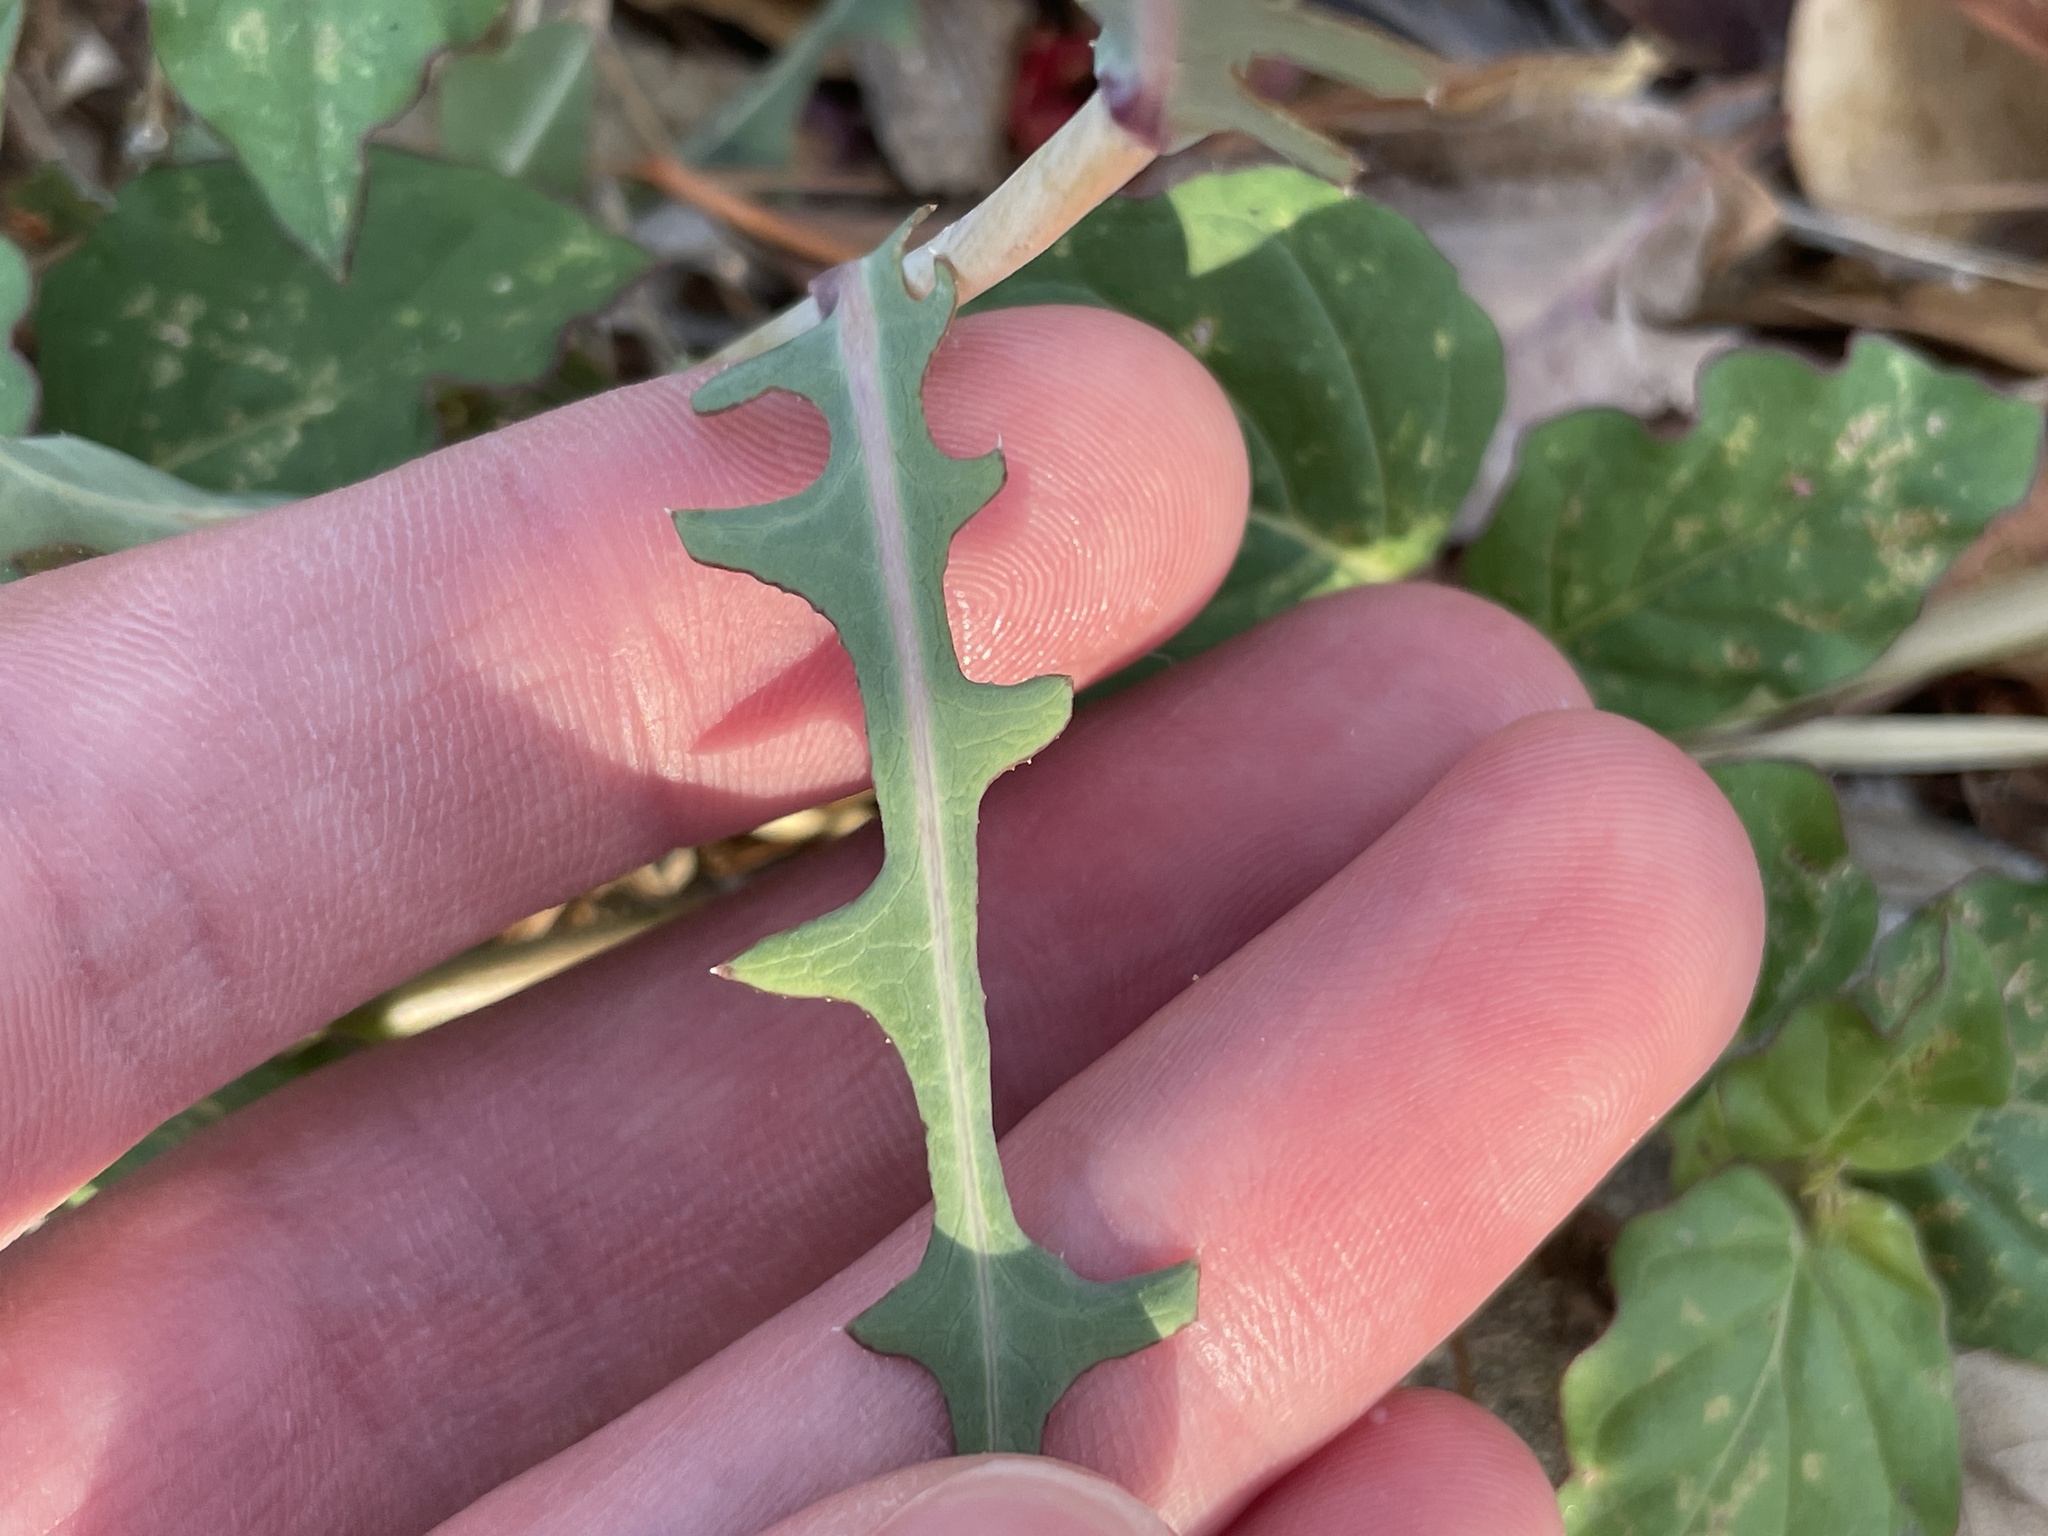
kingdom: Plantae
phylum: Tracheophyta
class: Magnoliopsida
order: Asterales
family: Asteraceae
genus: Lactuca
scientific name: Lactuca serriola
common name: Prickly lettuce
